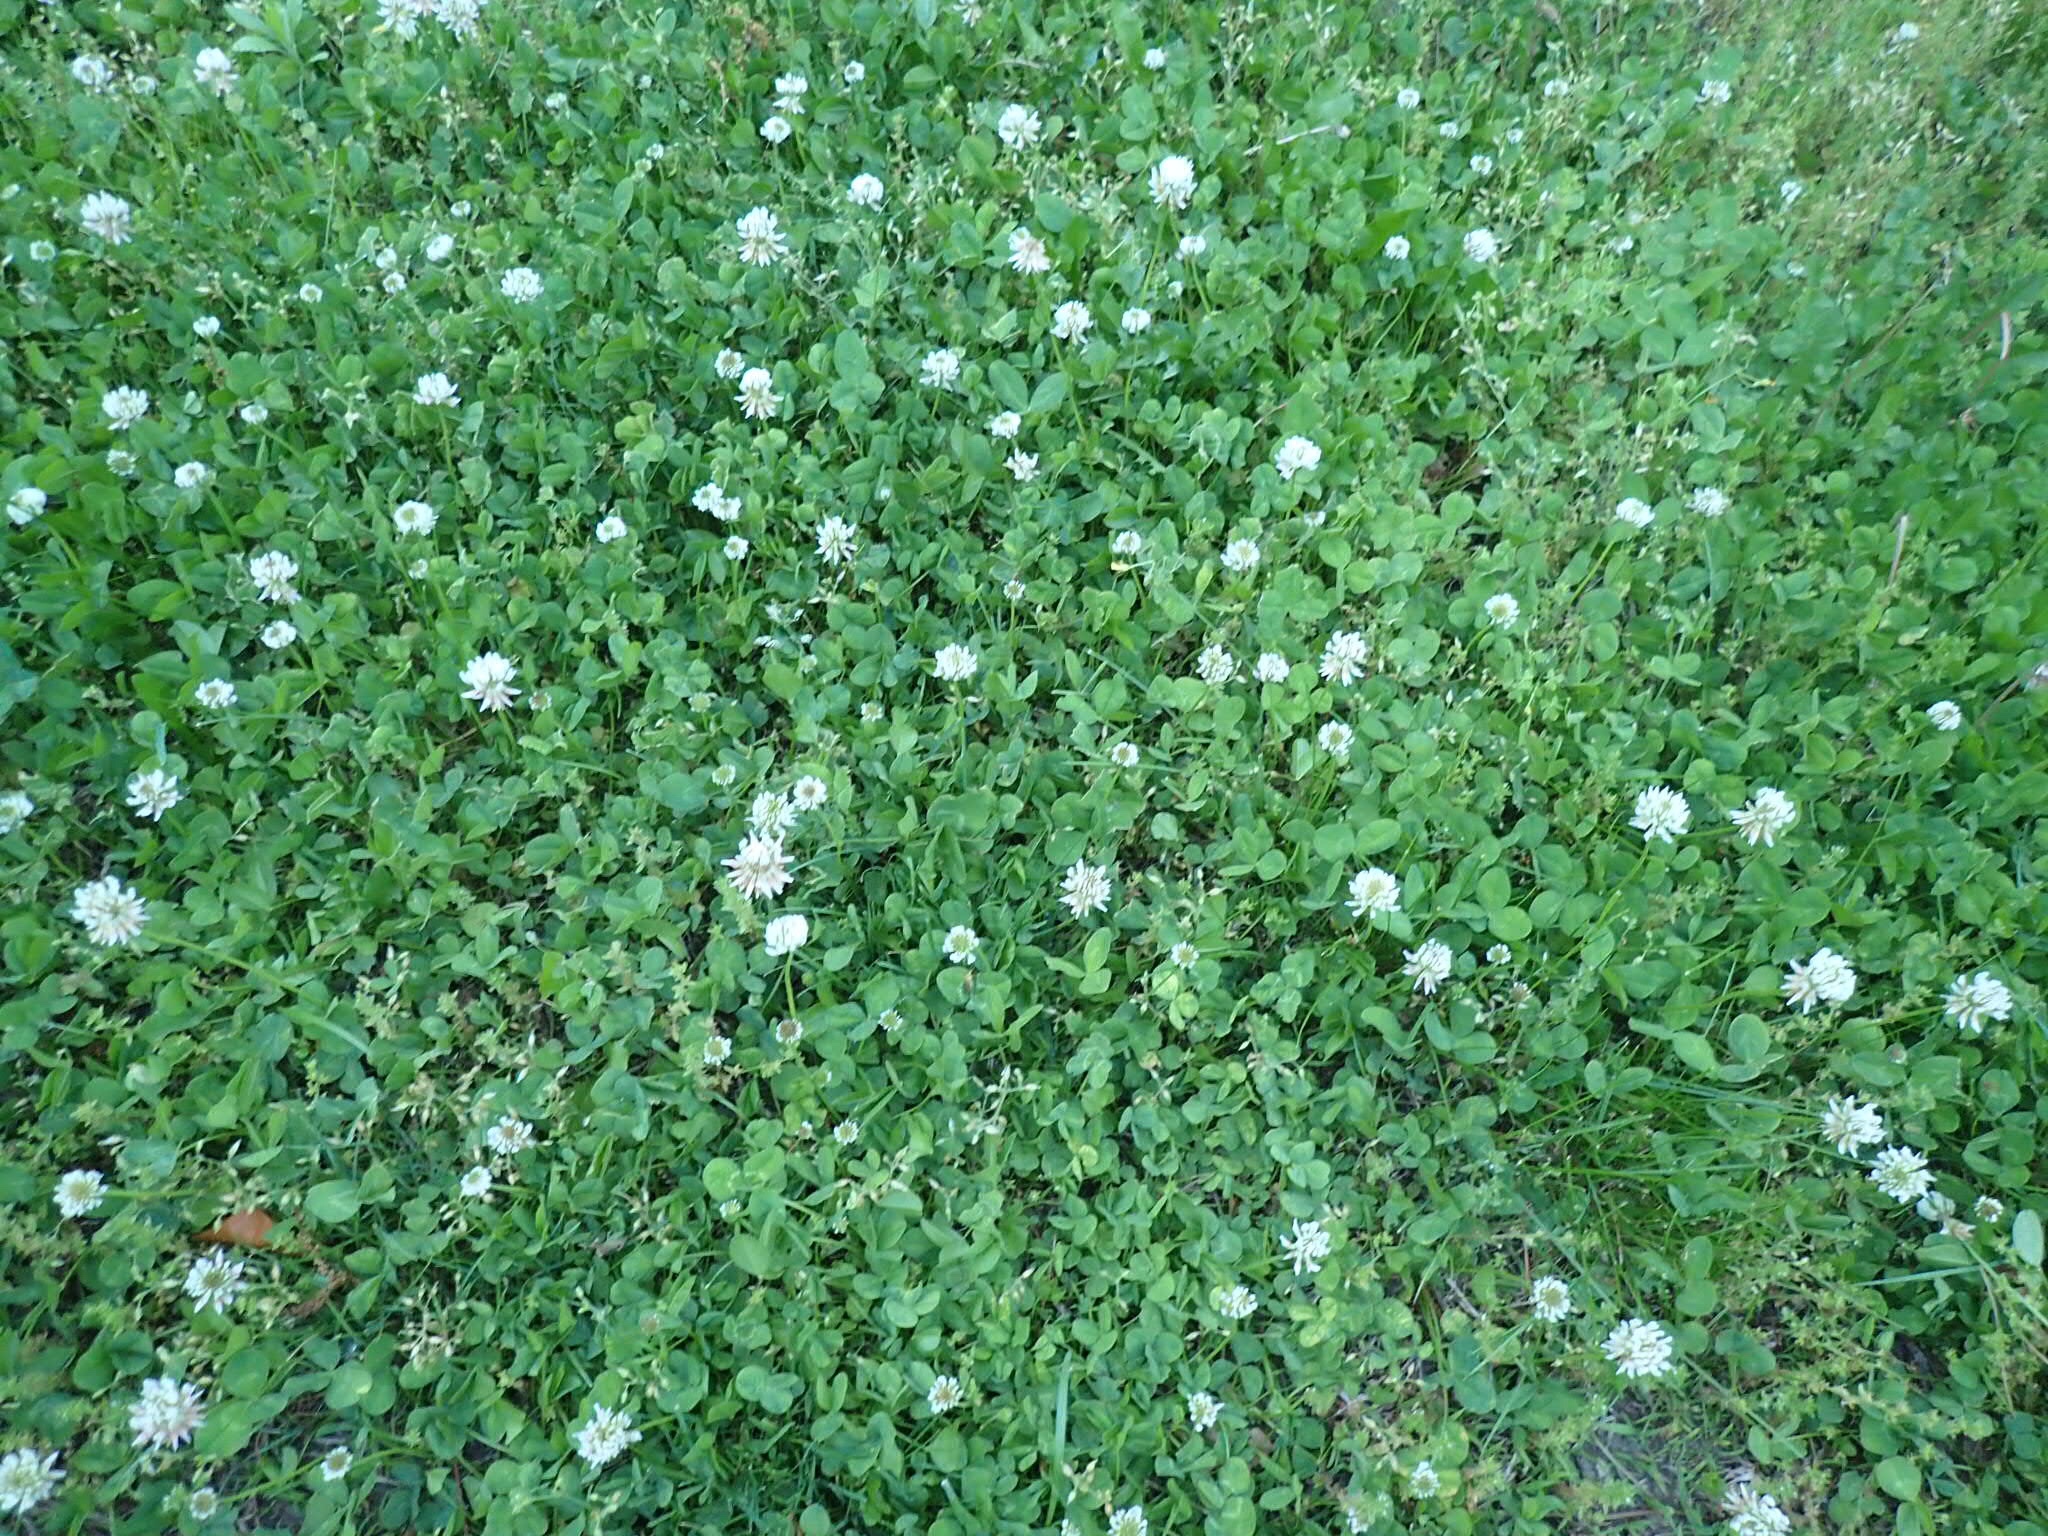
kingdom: Plantae
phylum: Tracheophyta
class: Magnoliopsida
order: Fabales
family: Fabaceae
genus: Trifolium
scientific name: Trifolium repens
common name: White clover
